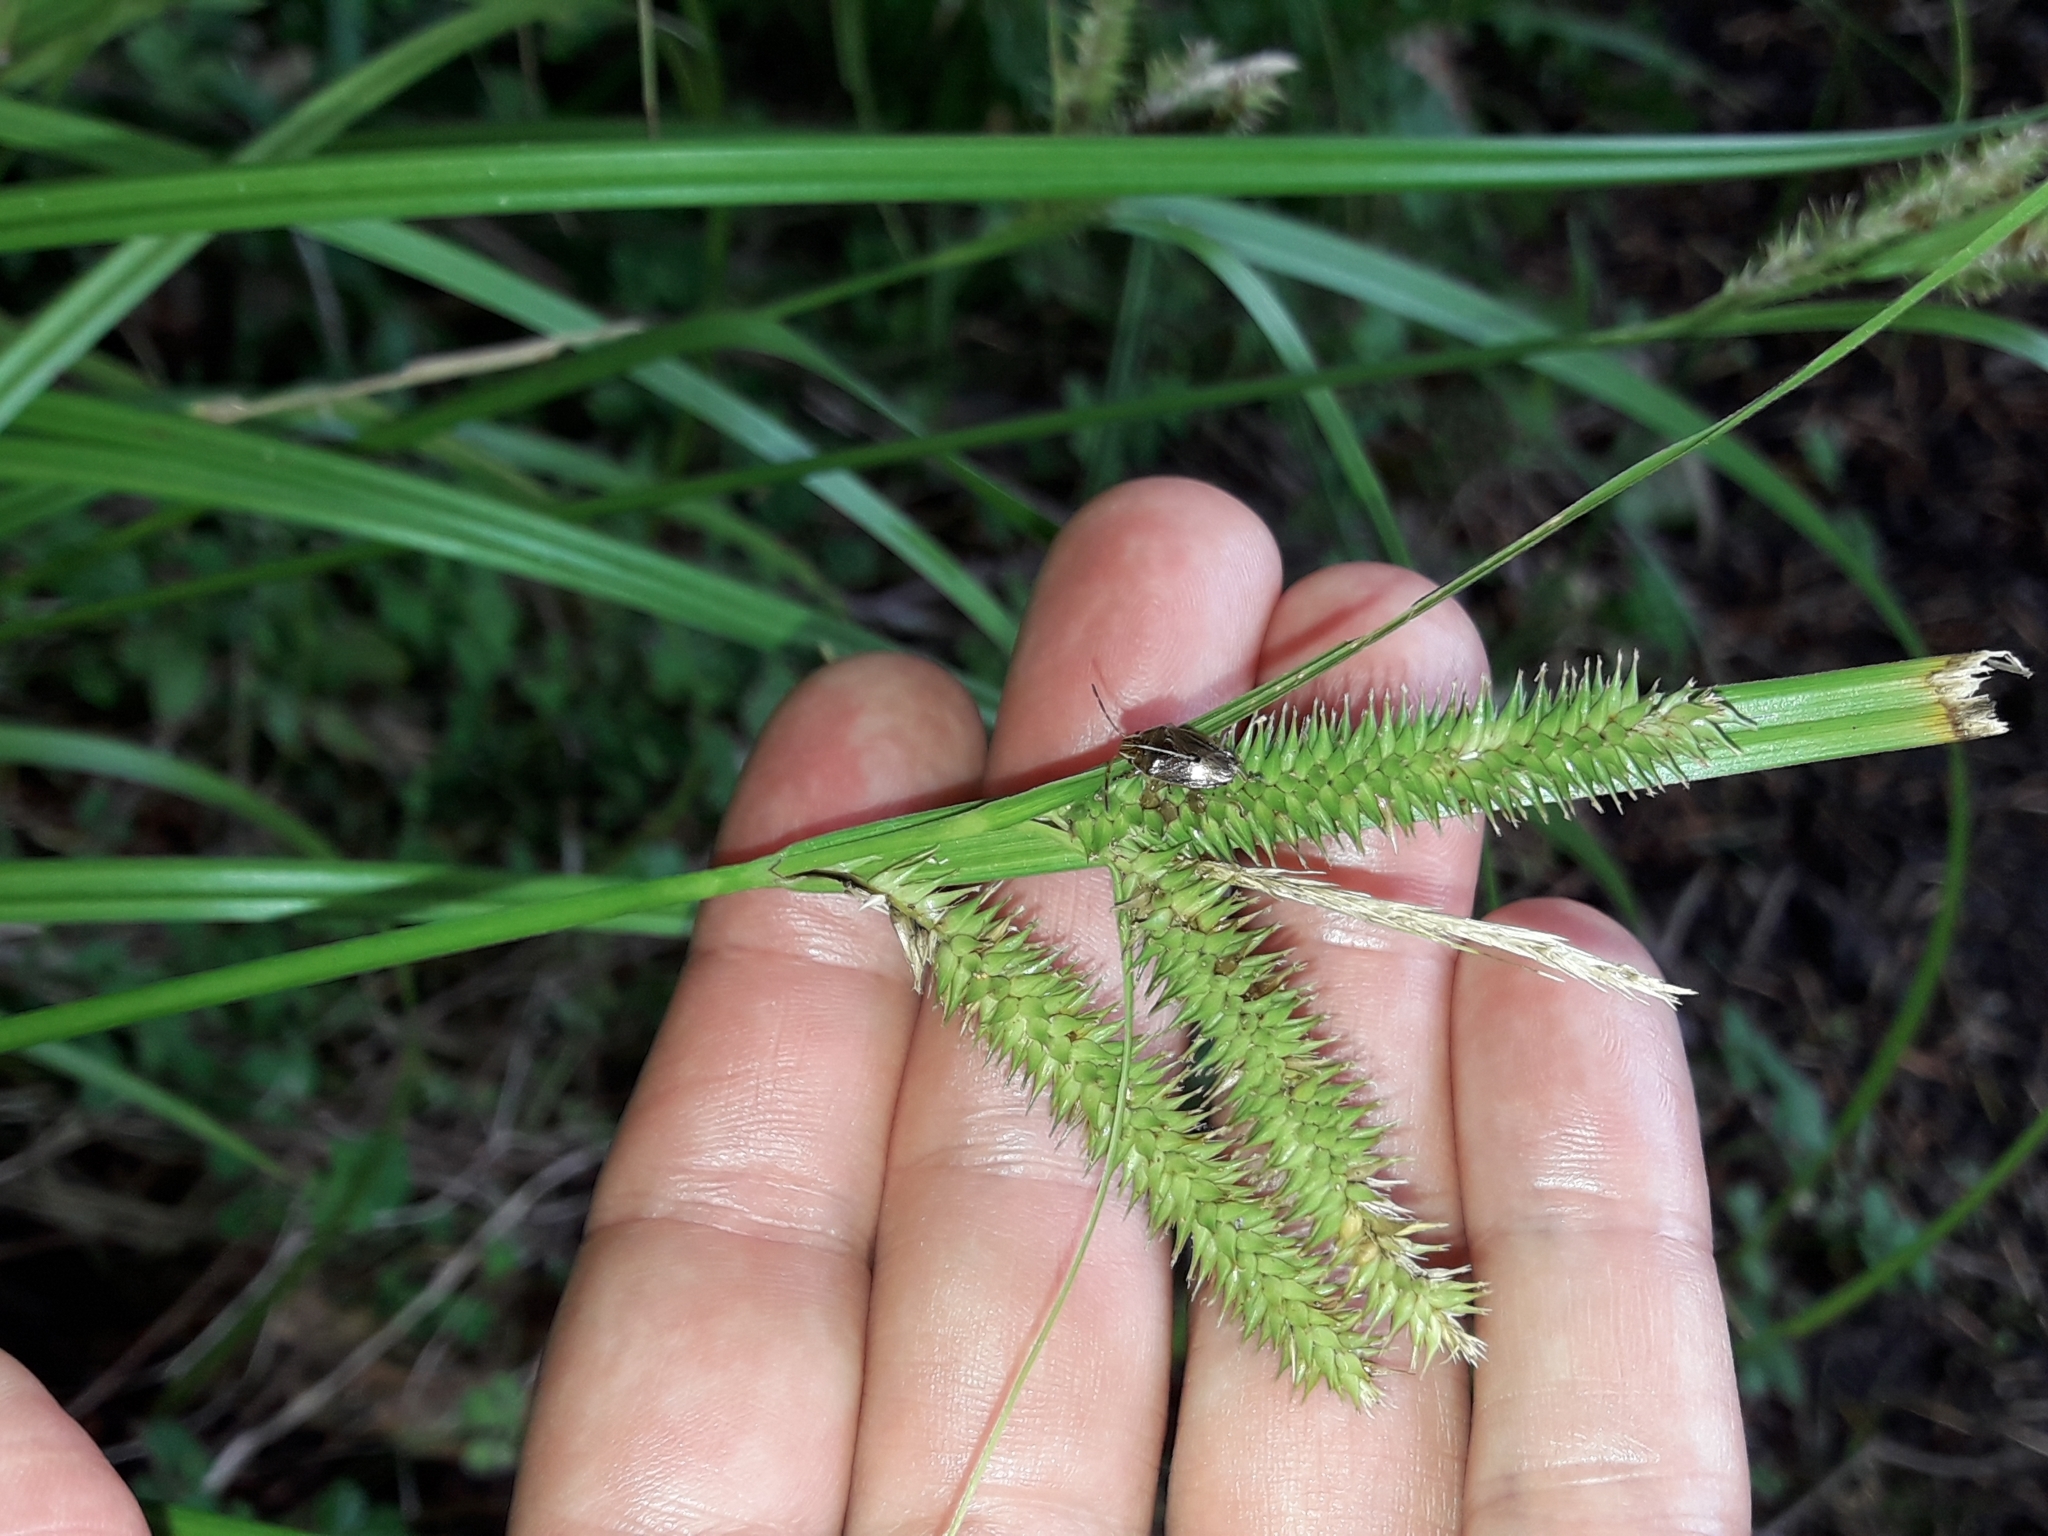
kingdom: Plantae
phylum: Tracheophyta
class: Liliopsida
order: Poales
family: Cyperaceae
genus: Carex
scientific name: Carex forsteri
